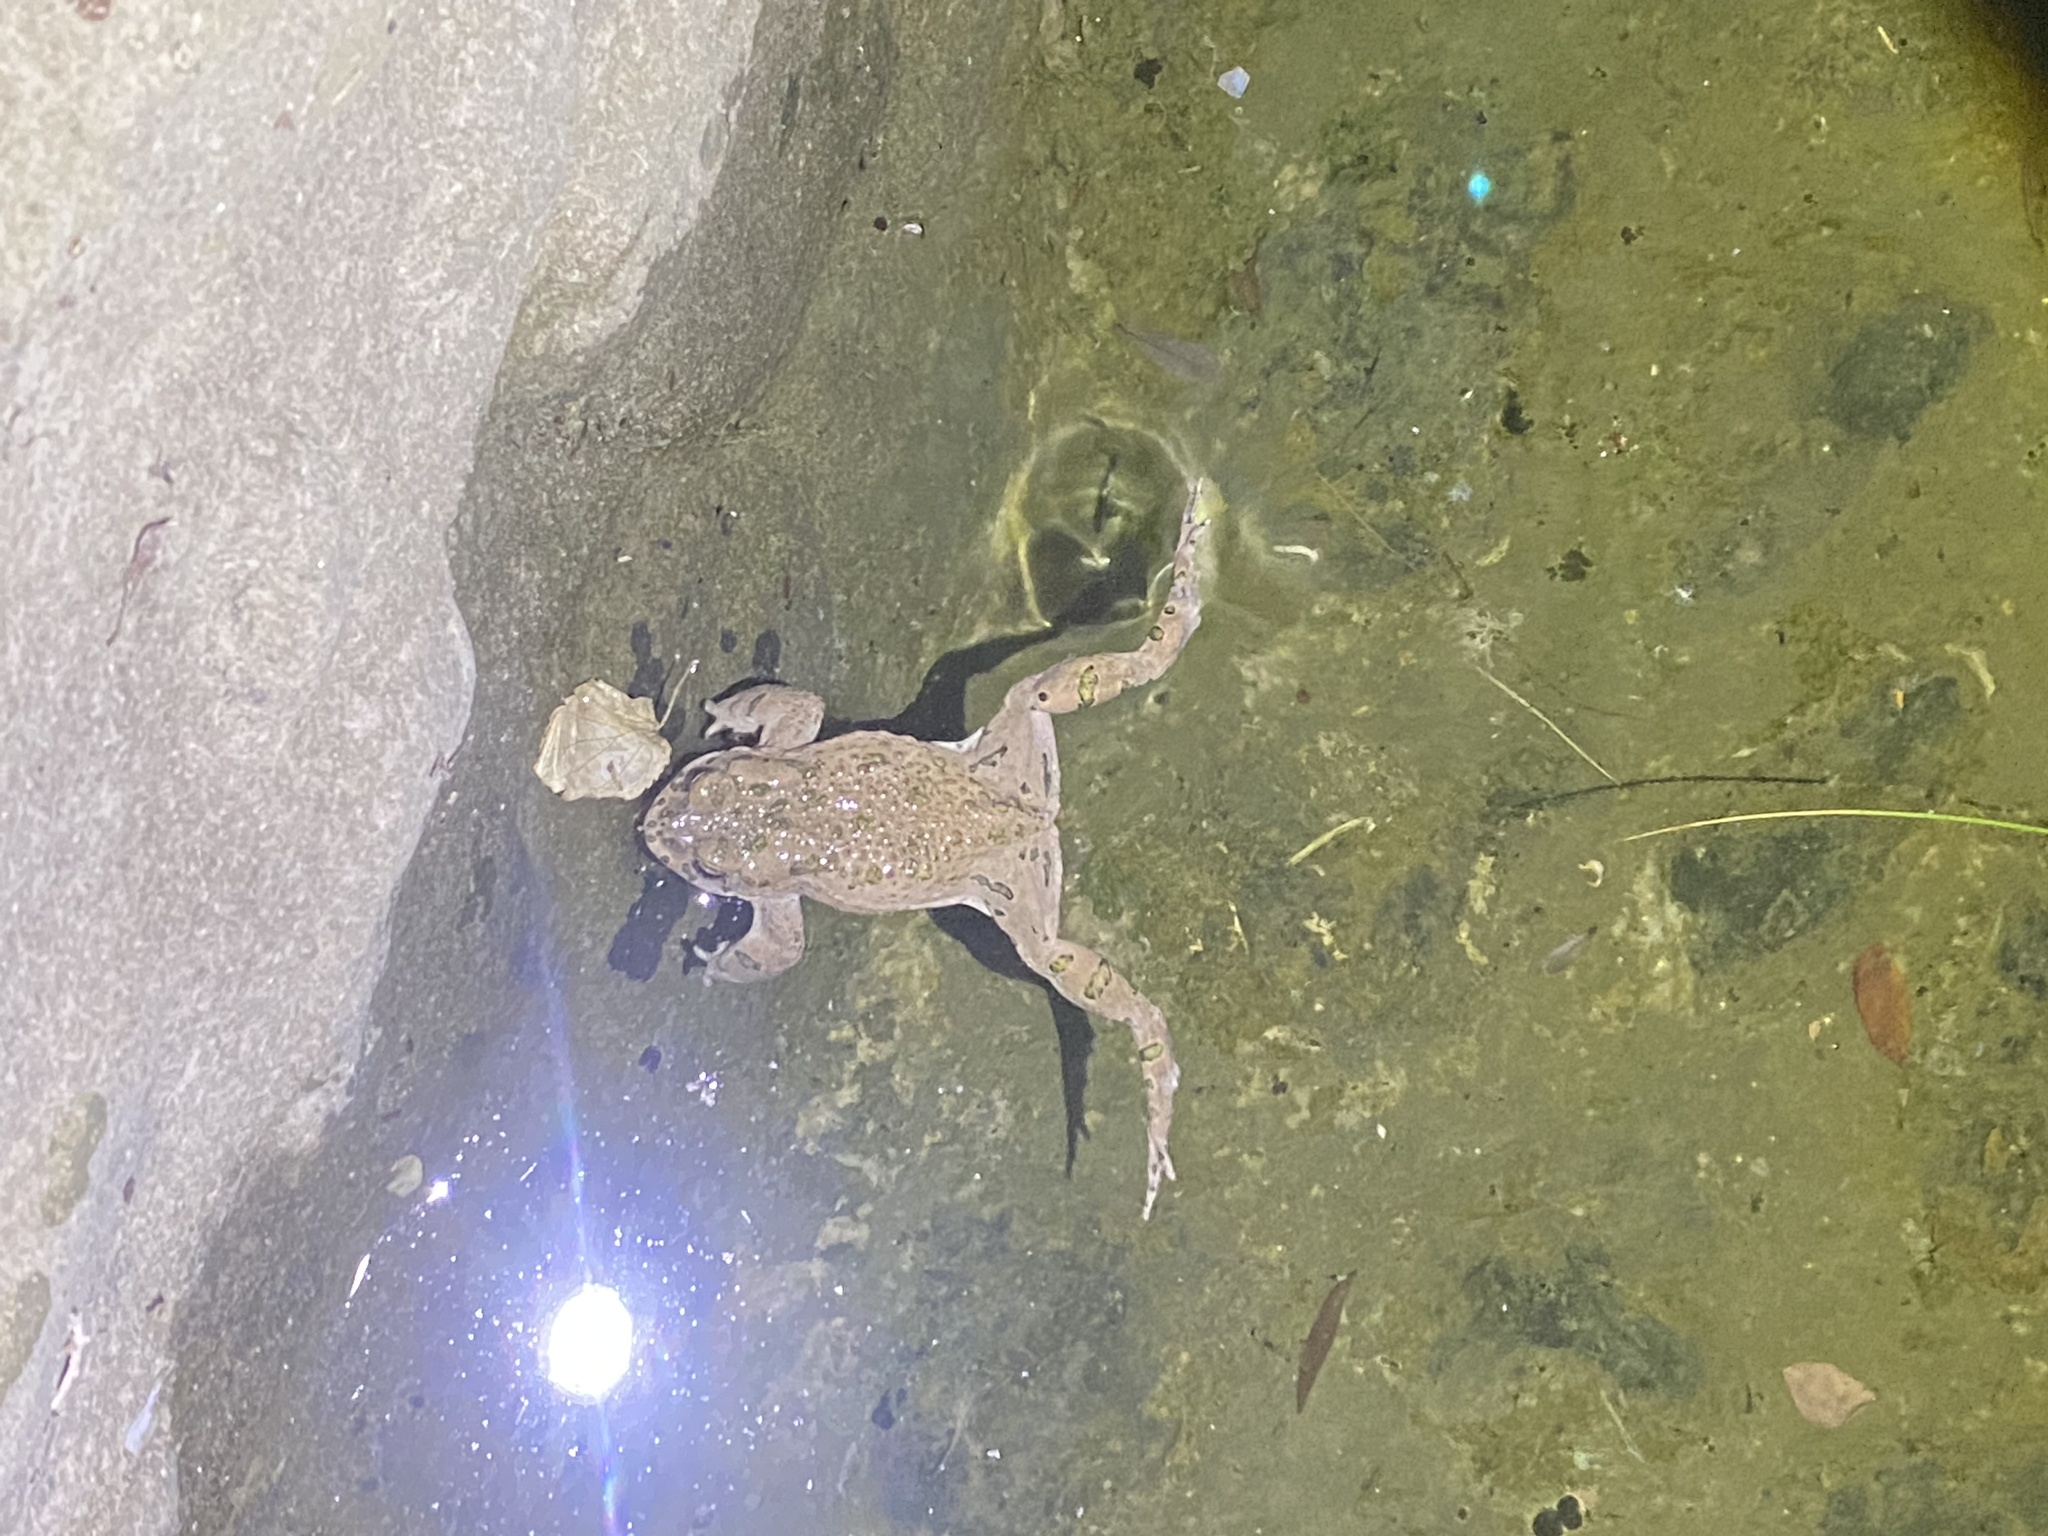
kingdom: Animalia
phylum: Chordata
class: Amphibia
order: Anura
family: Bufonidae
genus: Bufotes
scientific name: Bufotes viridis
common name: European green toad
